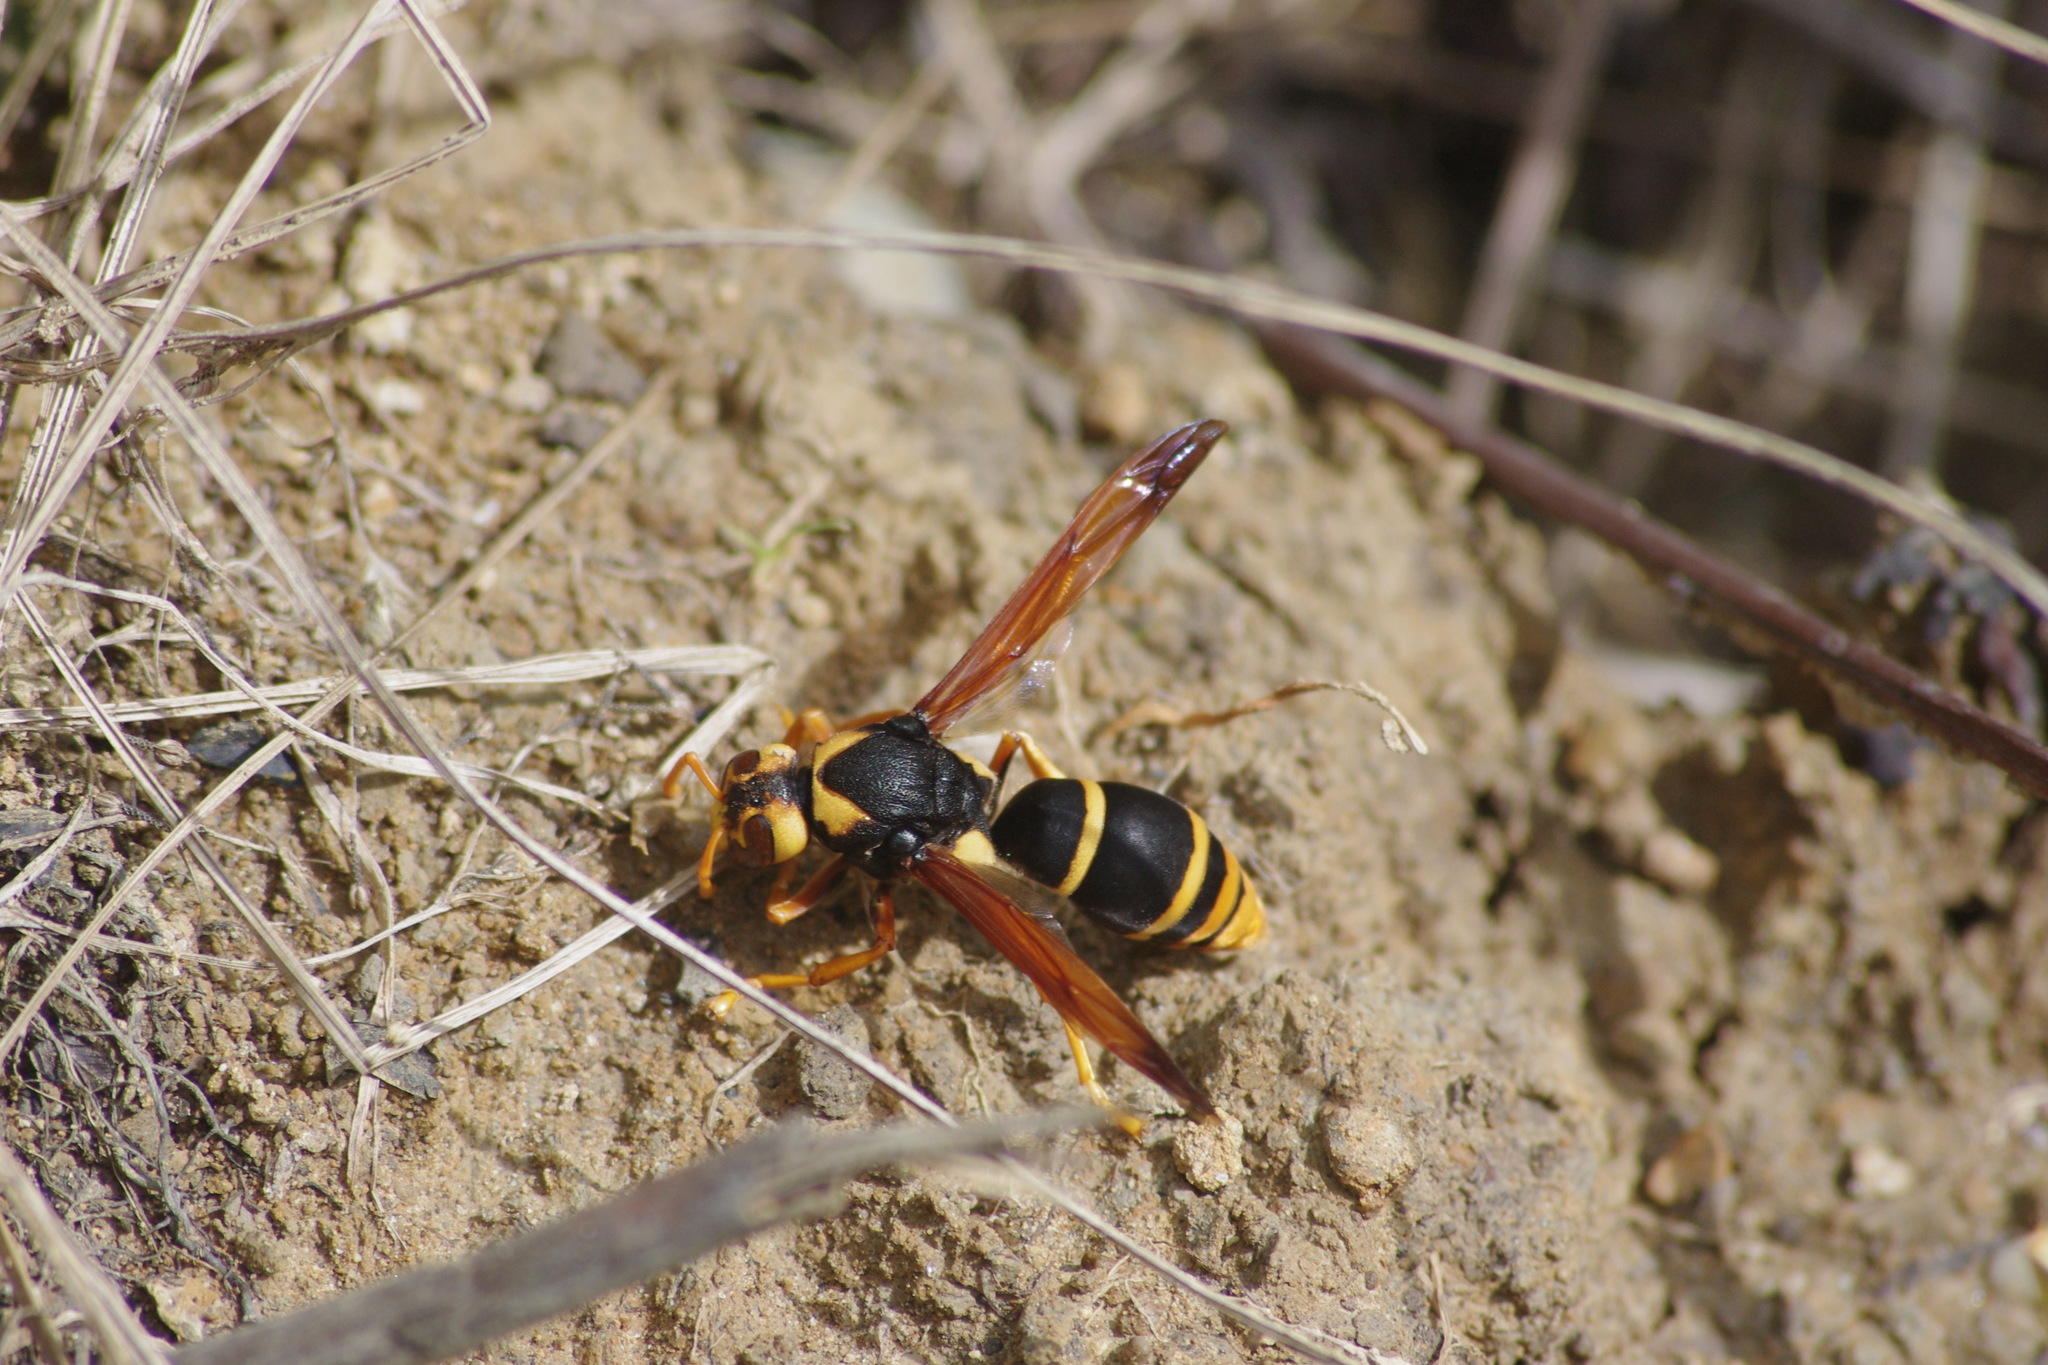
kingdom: Animalia
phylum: Arthropoda
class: Insecta
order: Hymenoptera
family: Eumenidae
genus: Abispa
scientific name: Abispa splendida
